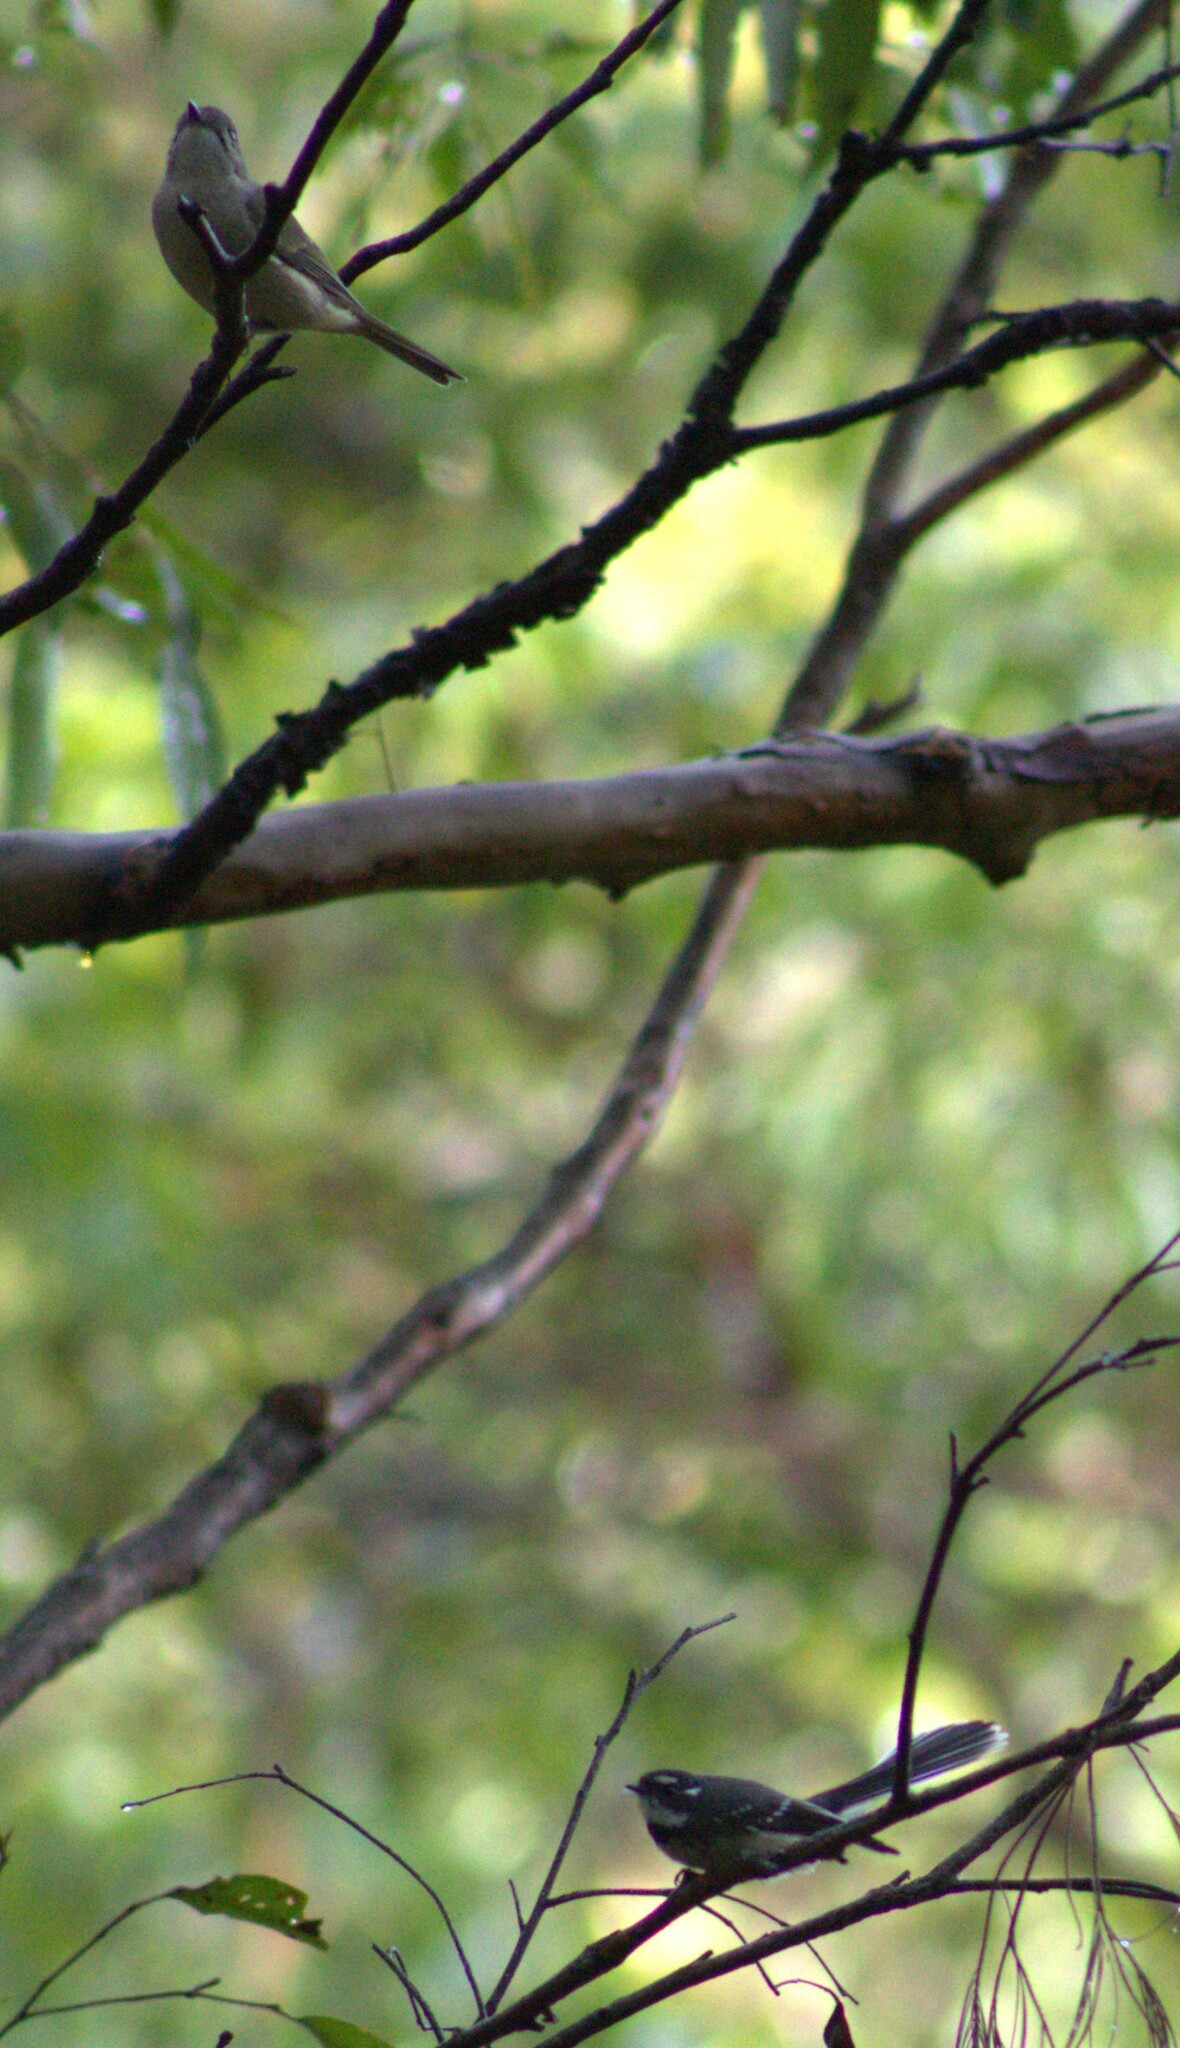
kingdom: Animalia
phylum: Chordata
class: Aves
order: Passeriformes
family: Pachycephalidae
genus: Pachycephala
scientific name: Pachycephala pectoralis
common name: Australian golden whistler
